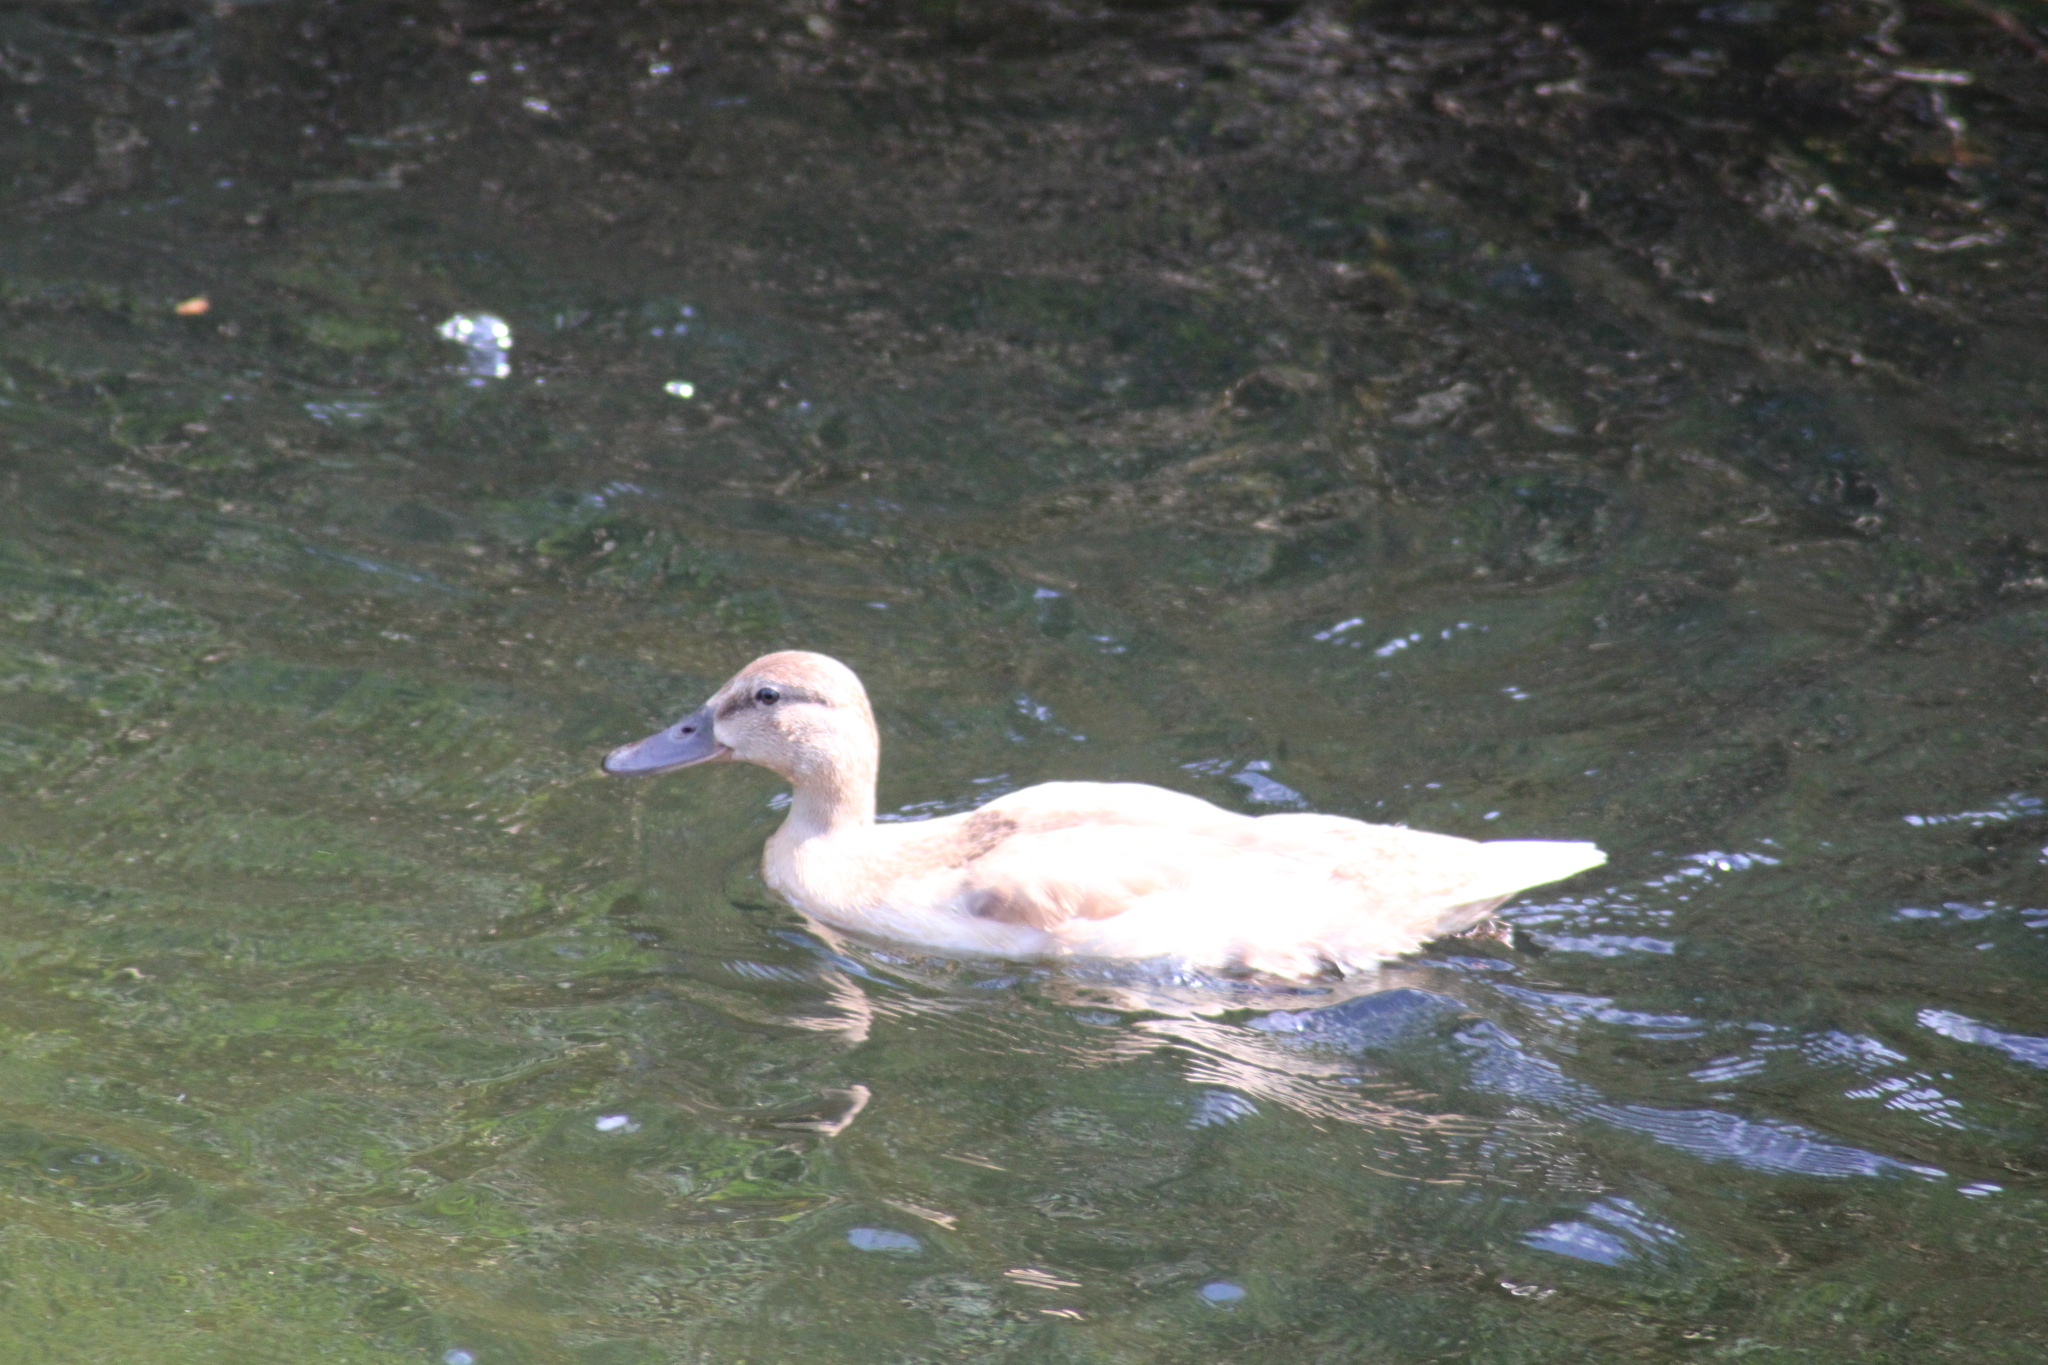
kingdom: Animalia
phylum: Chordata
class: Aves
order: Anseriformes
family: Anatidae
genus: Anas
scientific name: Anas platyrhynchos
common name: Mallard
